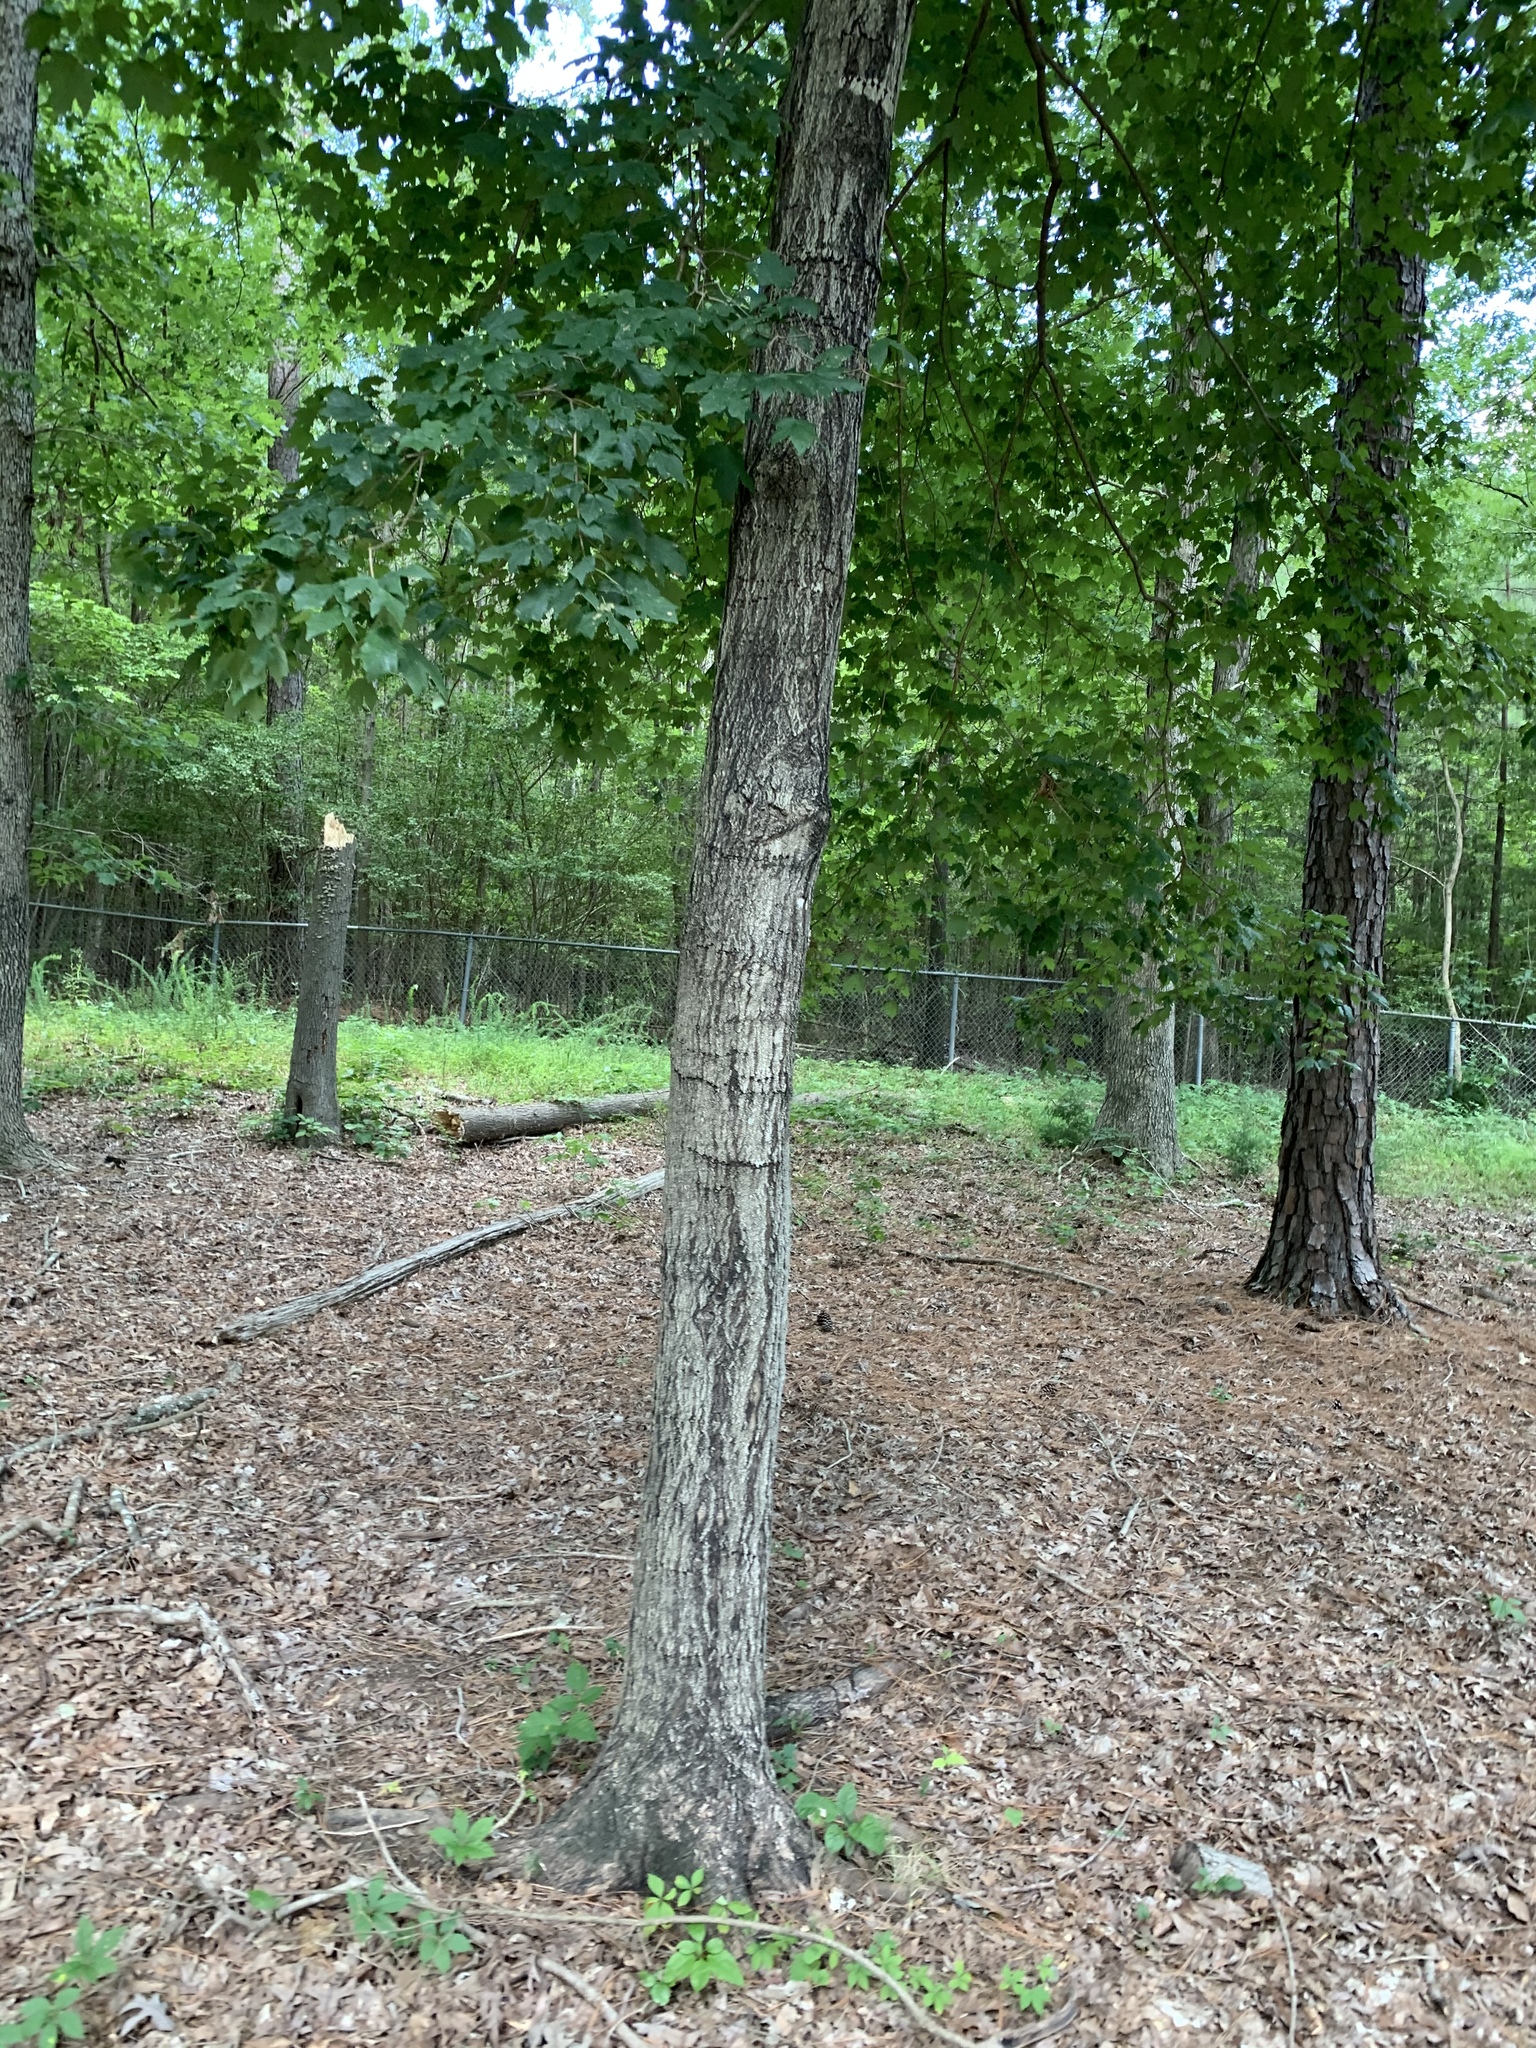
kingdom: Plantae
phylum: Tracheophyta
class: Magnoliopsida
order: Sapindales
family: Sapindaceae
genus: Acer
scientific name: Acer floridanum
